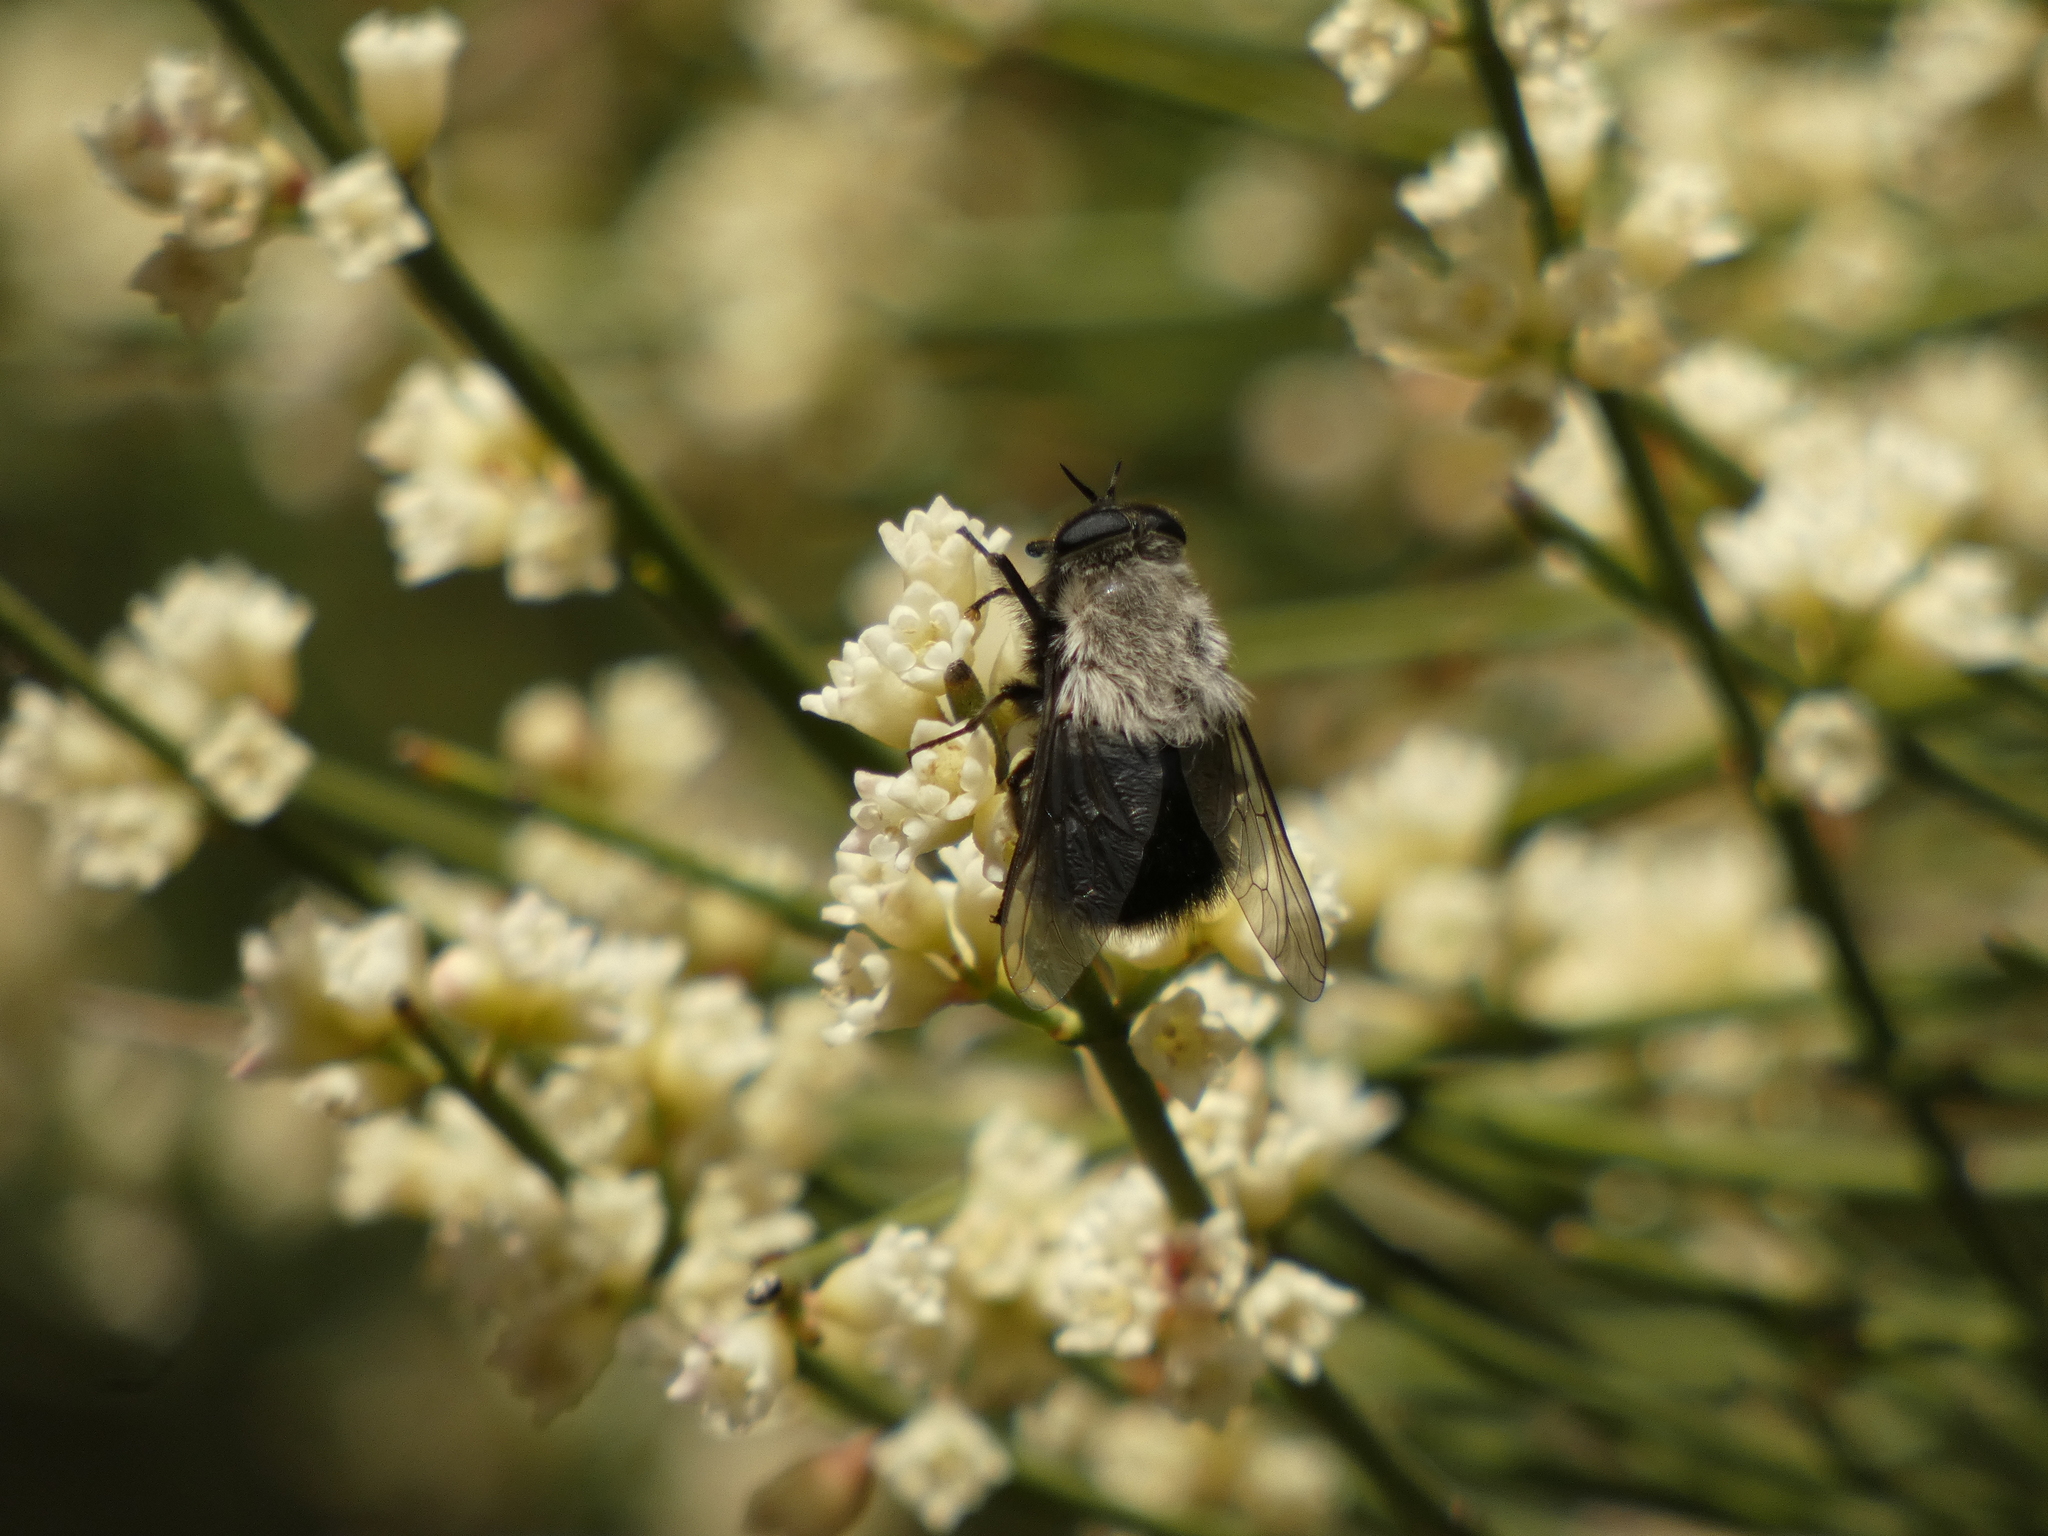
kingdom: Animalia
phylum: Arthropoda
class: Insecta
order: Diptera
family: Tabanidae
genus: Osca
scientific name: Osca albithorax
